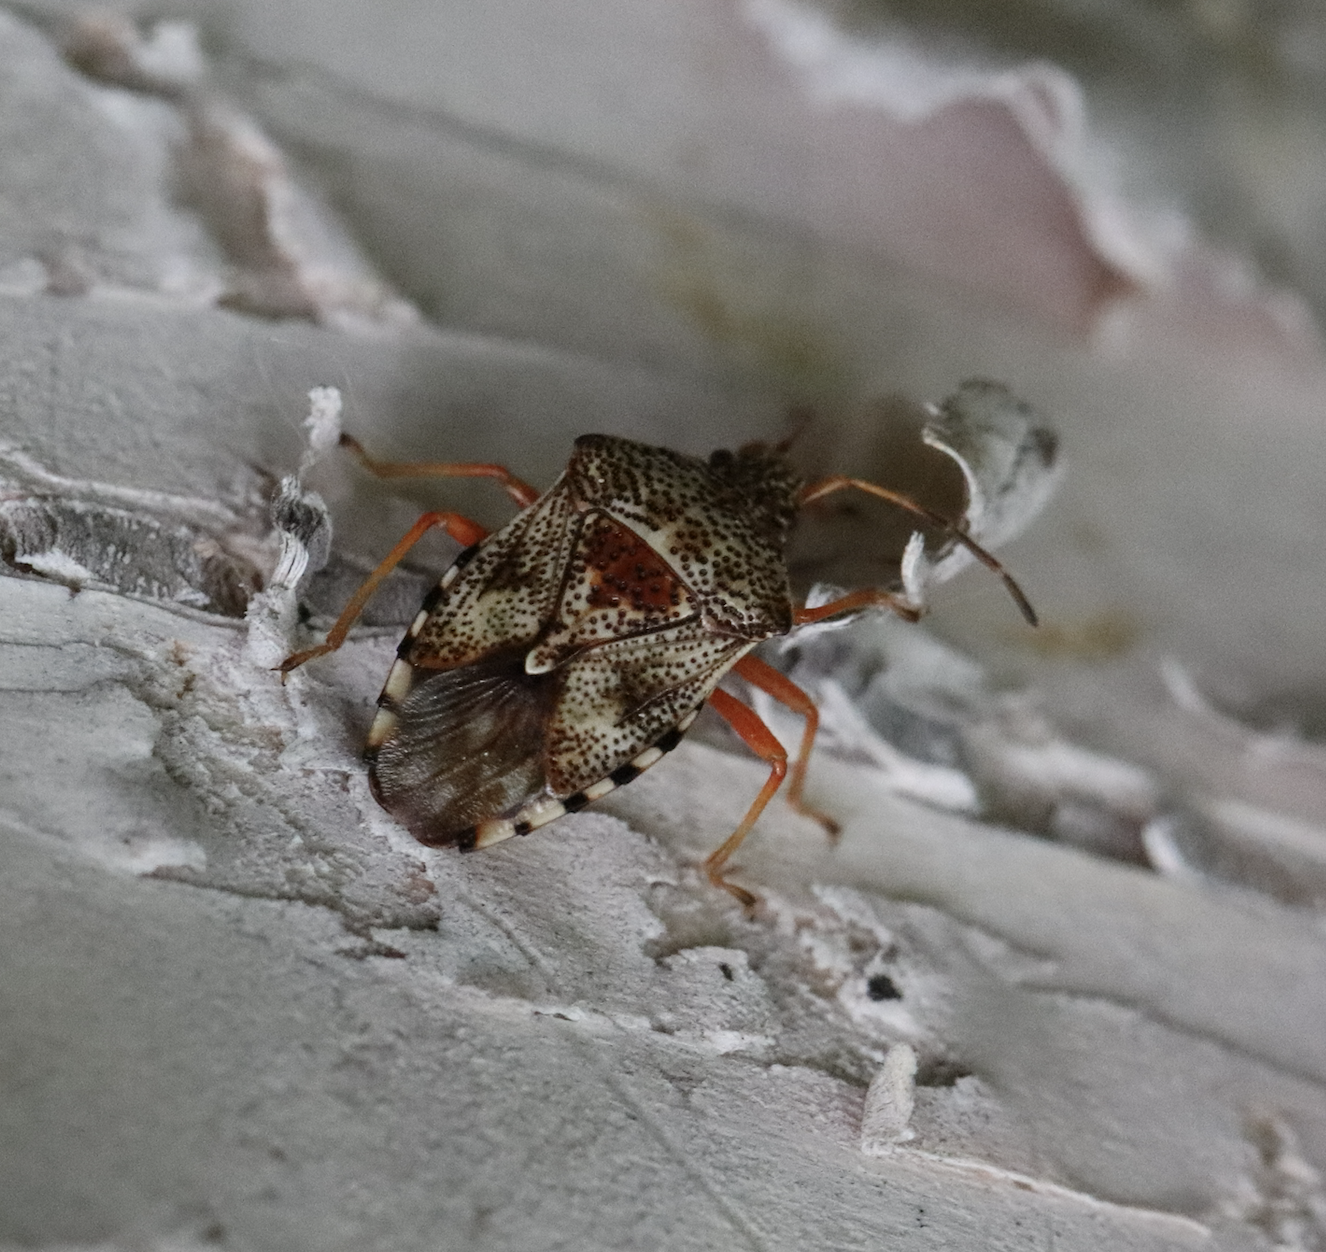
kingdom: Animalia
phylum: Arthropoda
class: Insecta
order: Hemiptera
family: Acanthosomatidae
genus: Elasmucha
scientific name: Elasmucha lateralis
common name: Shield bug
